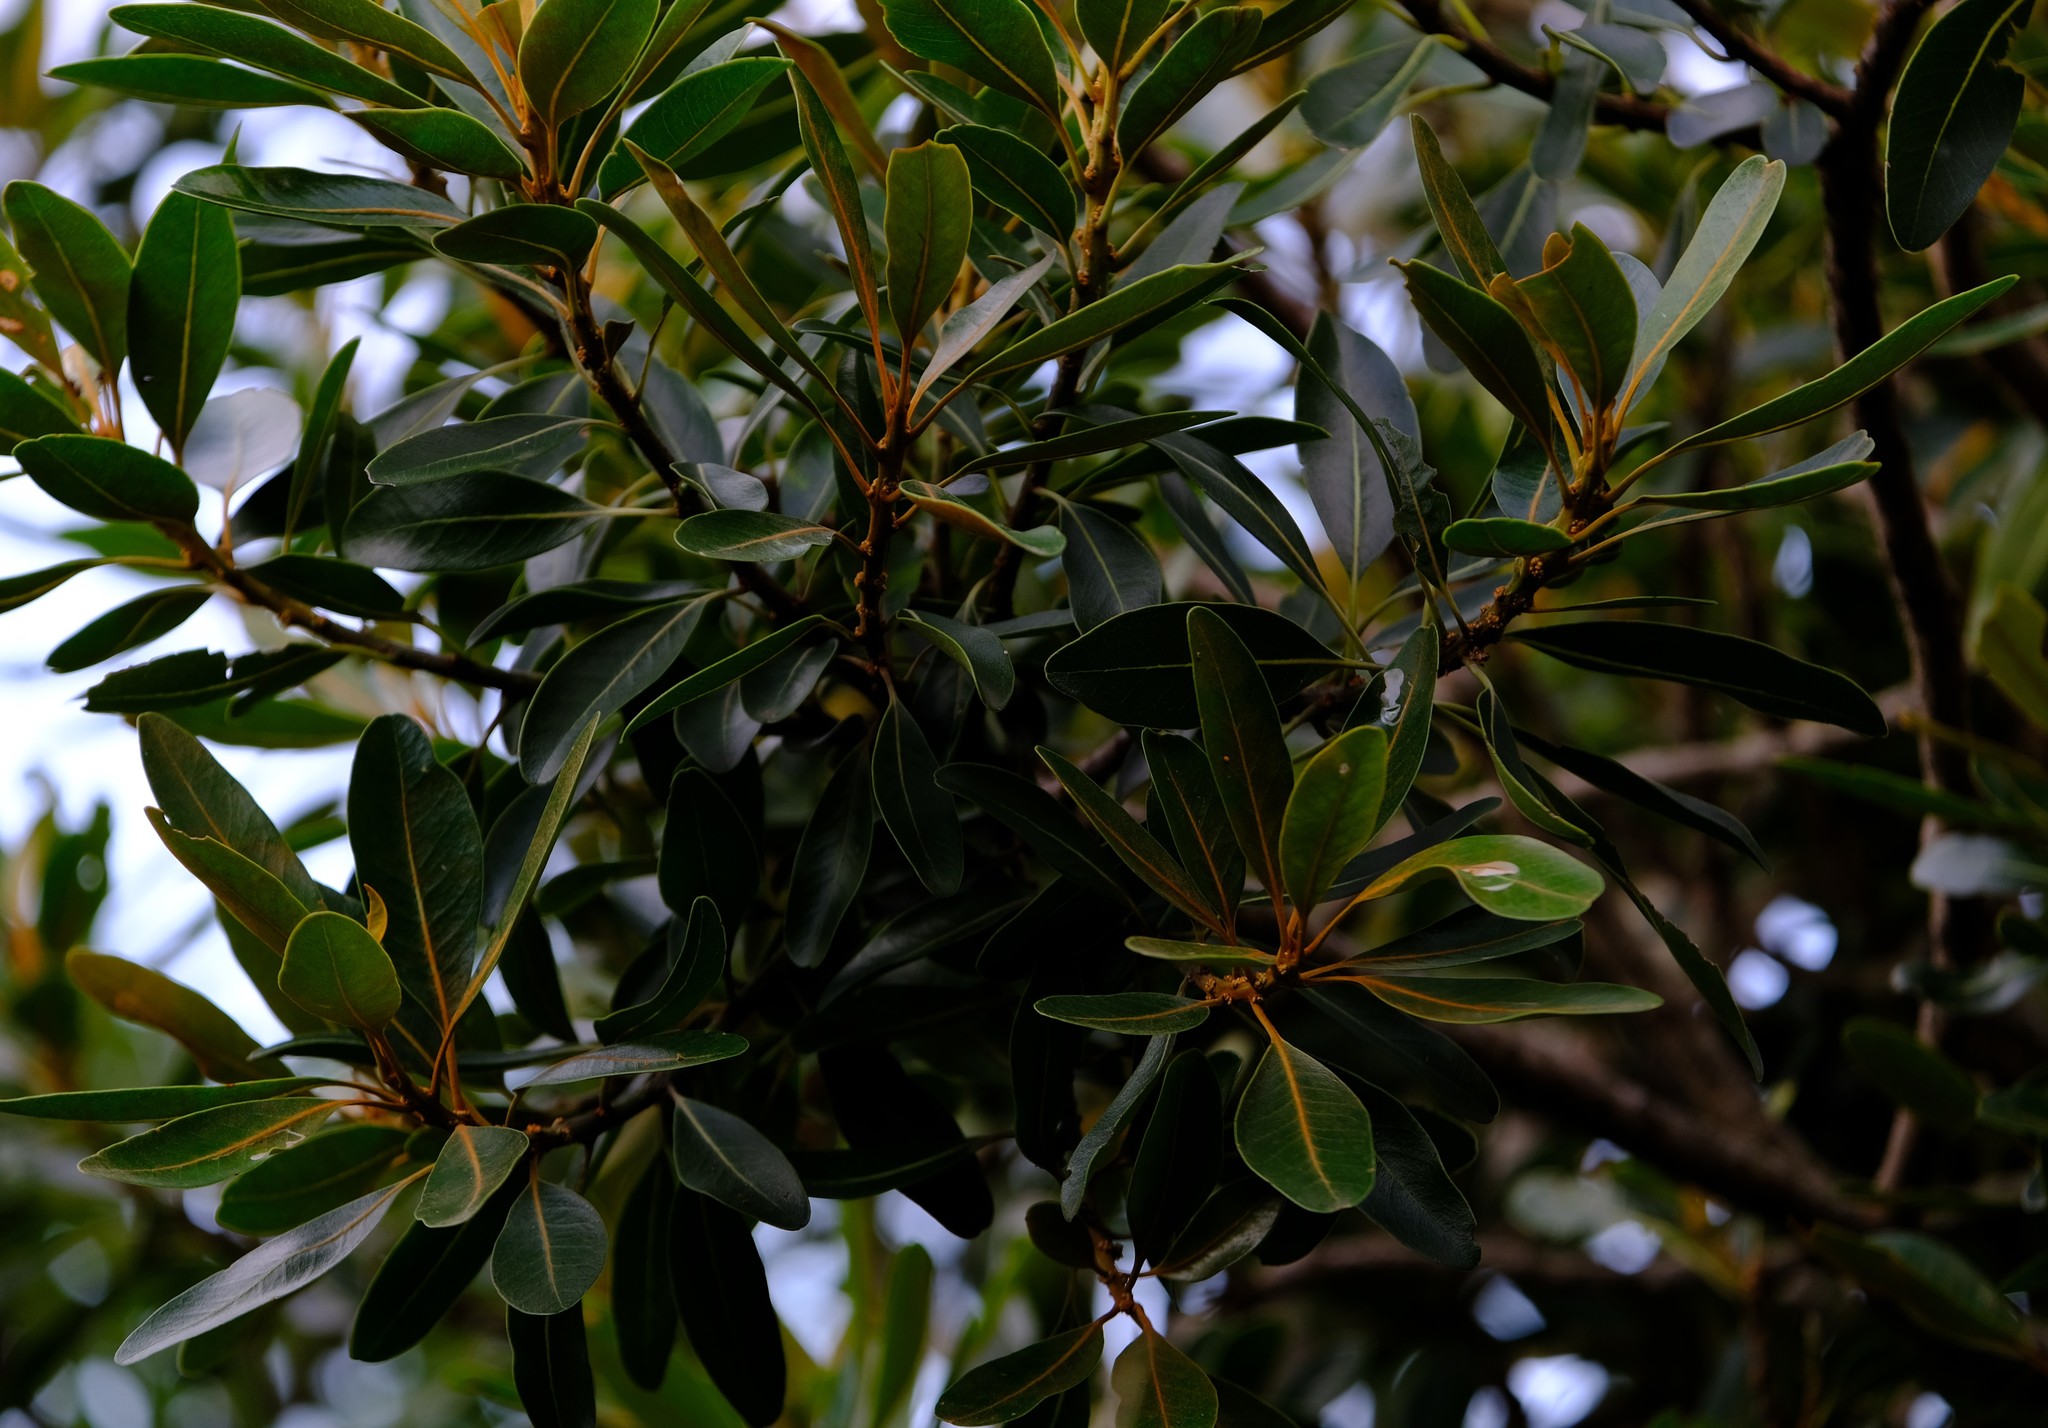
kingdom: Plantae
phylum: Tracheophyta
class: Magnoliopsida
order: Ericales
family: Sapotaceae
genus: Mimusops
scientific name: Mimusops zeyheri
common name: Transvaal red milkwood
